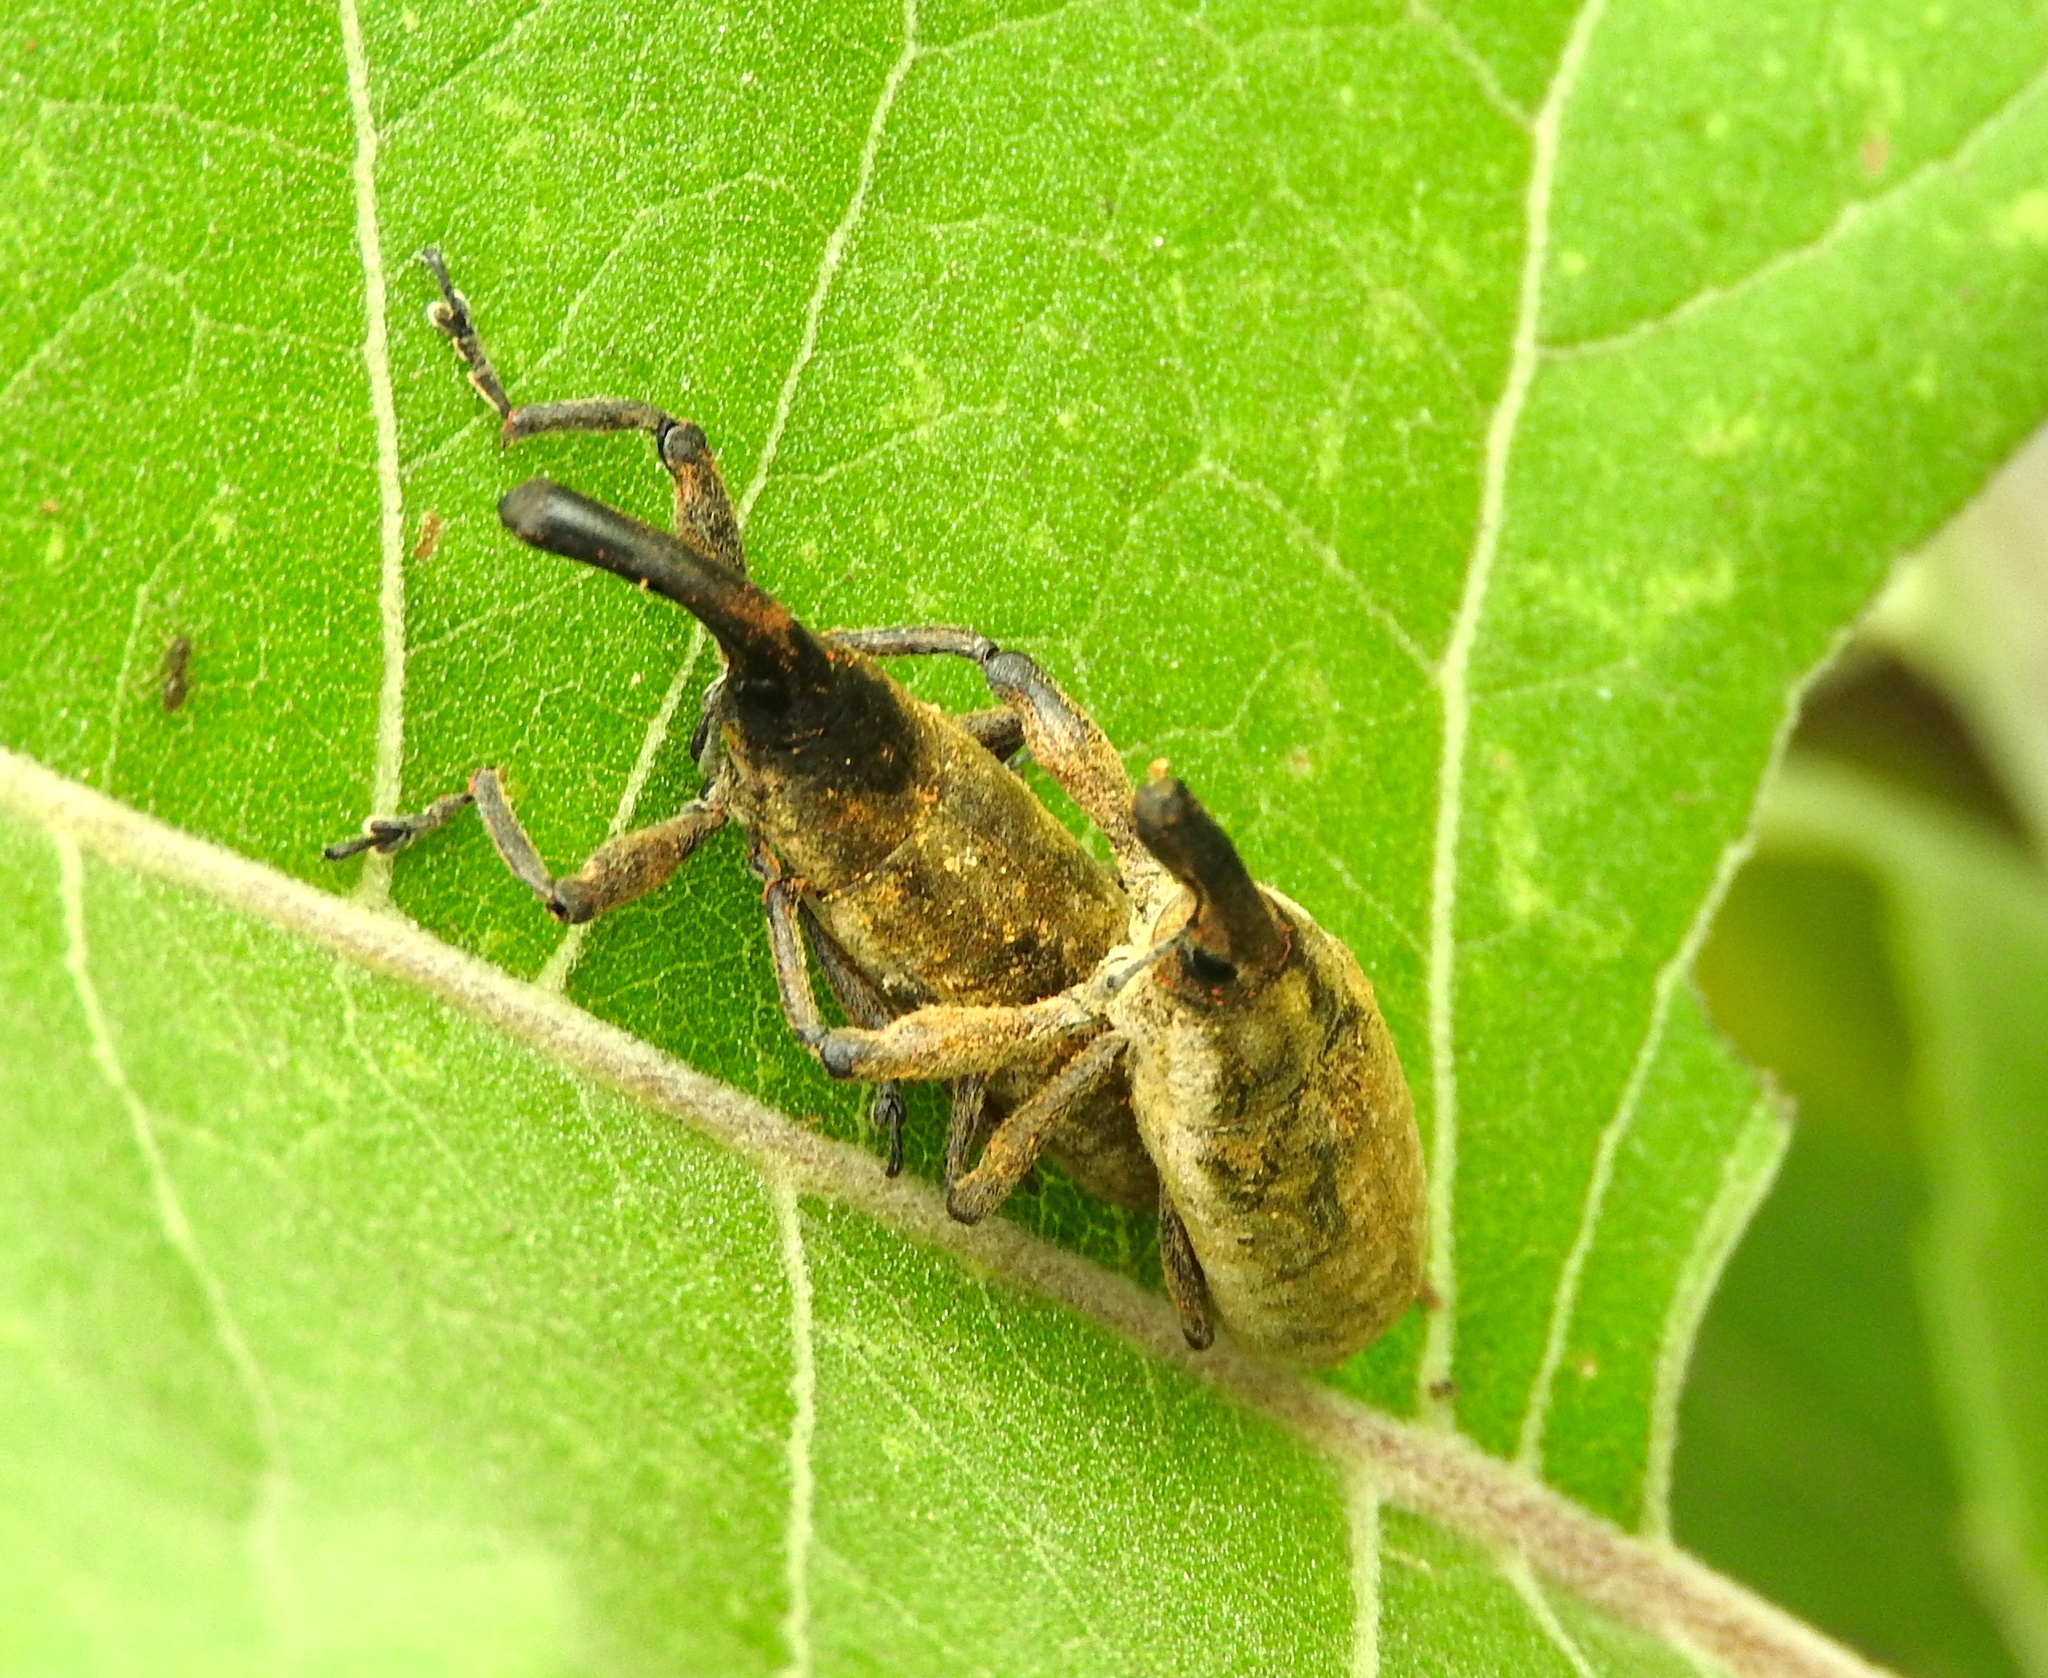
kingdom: Animalia
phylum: Arthropoda
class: Insecta
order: Coleoptera
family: Curculionidae
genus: Lixus
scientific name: Lixus
